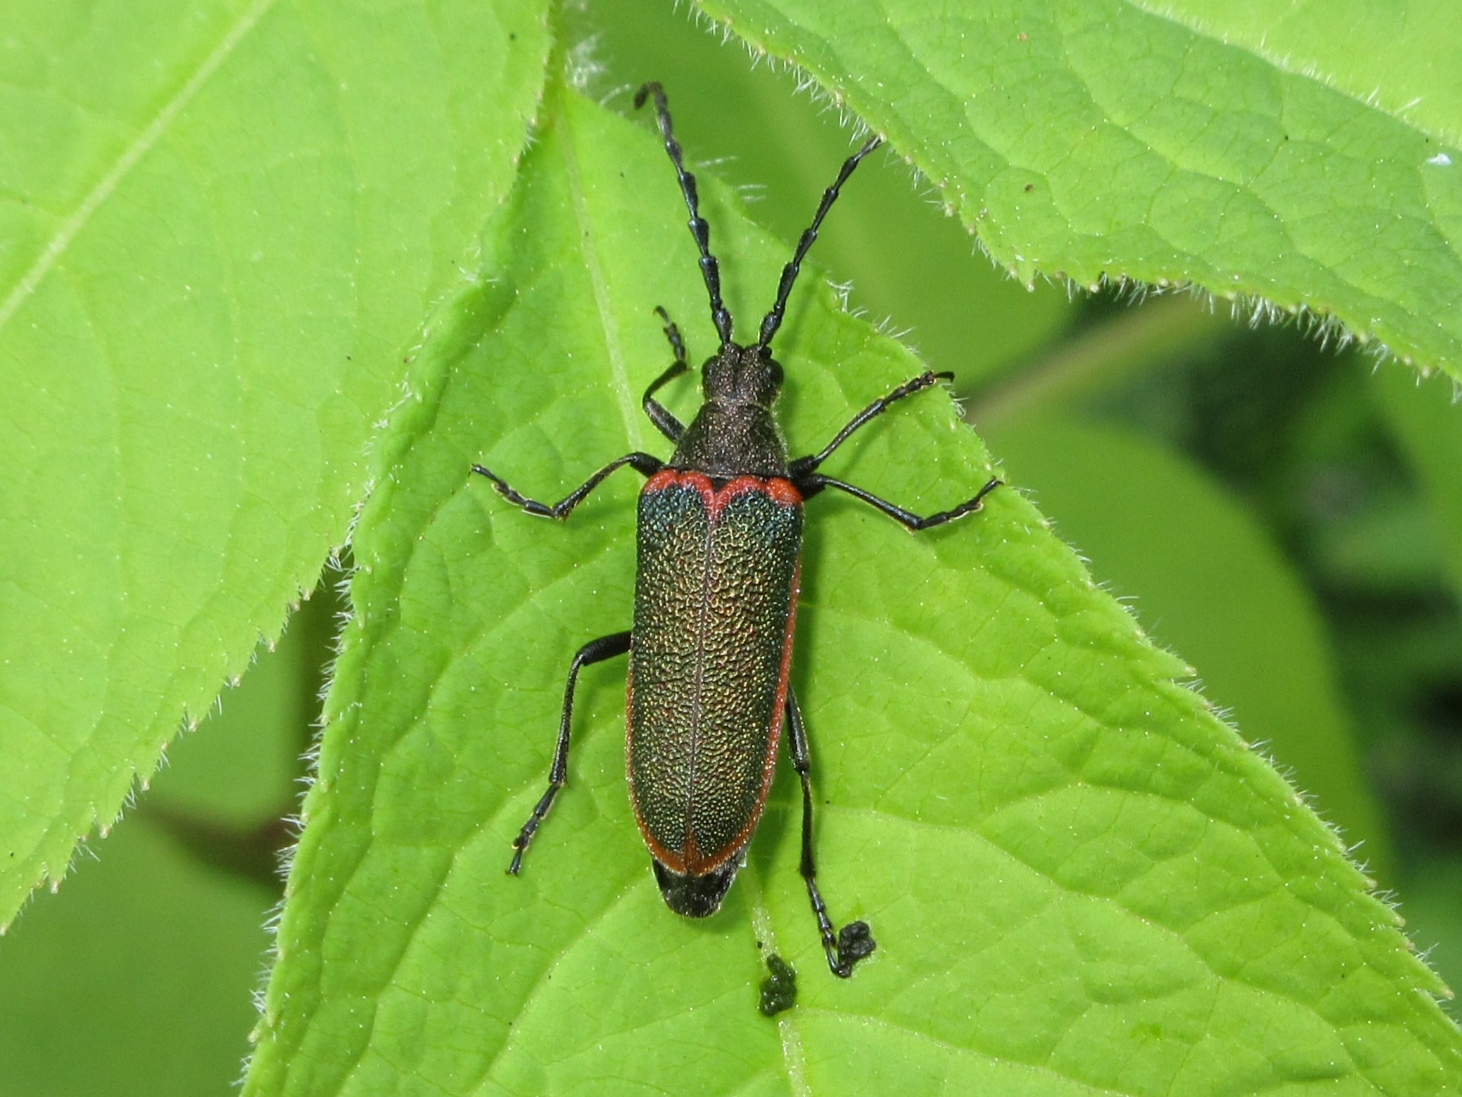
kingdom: Animalia
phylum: Arthropoda
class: Insecta
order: Coleoptera
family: Cerambycidae
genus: Desmocerus
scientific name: Desmocerus aureipennis
